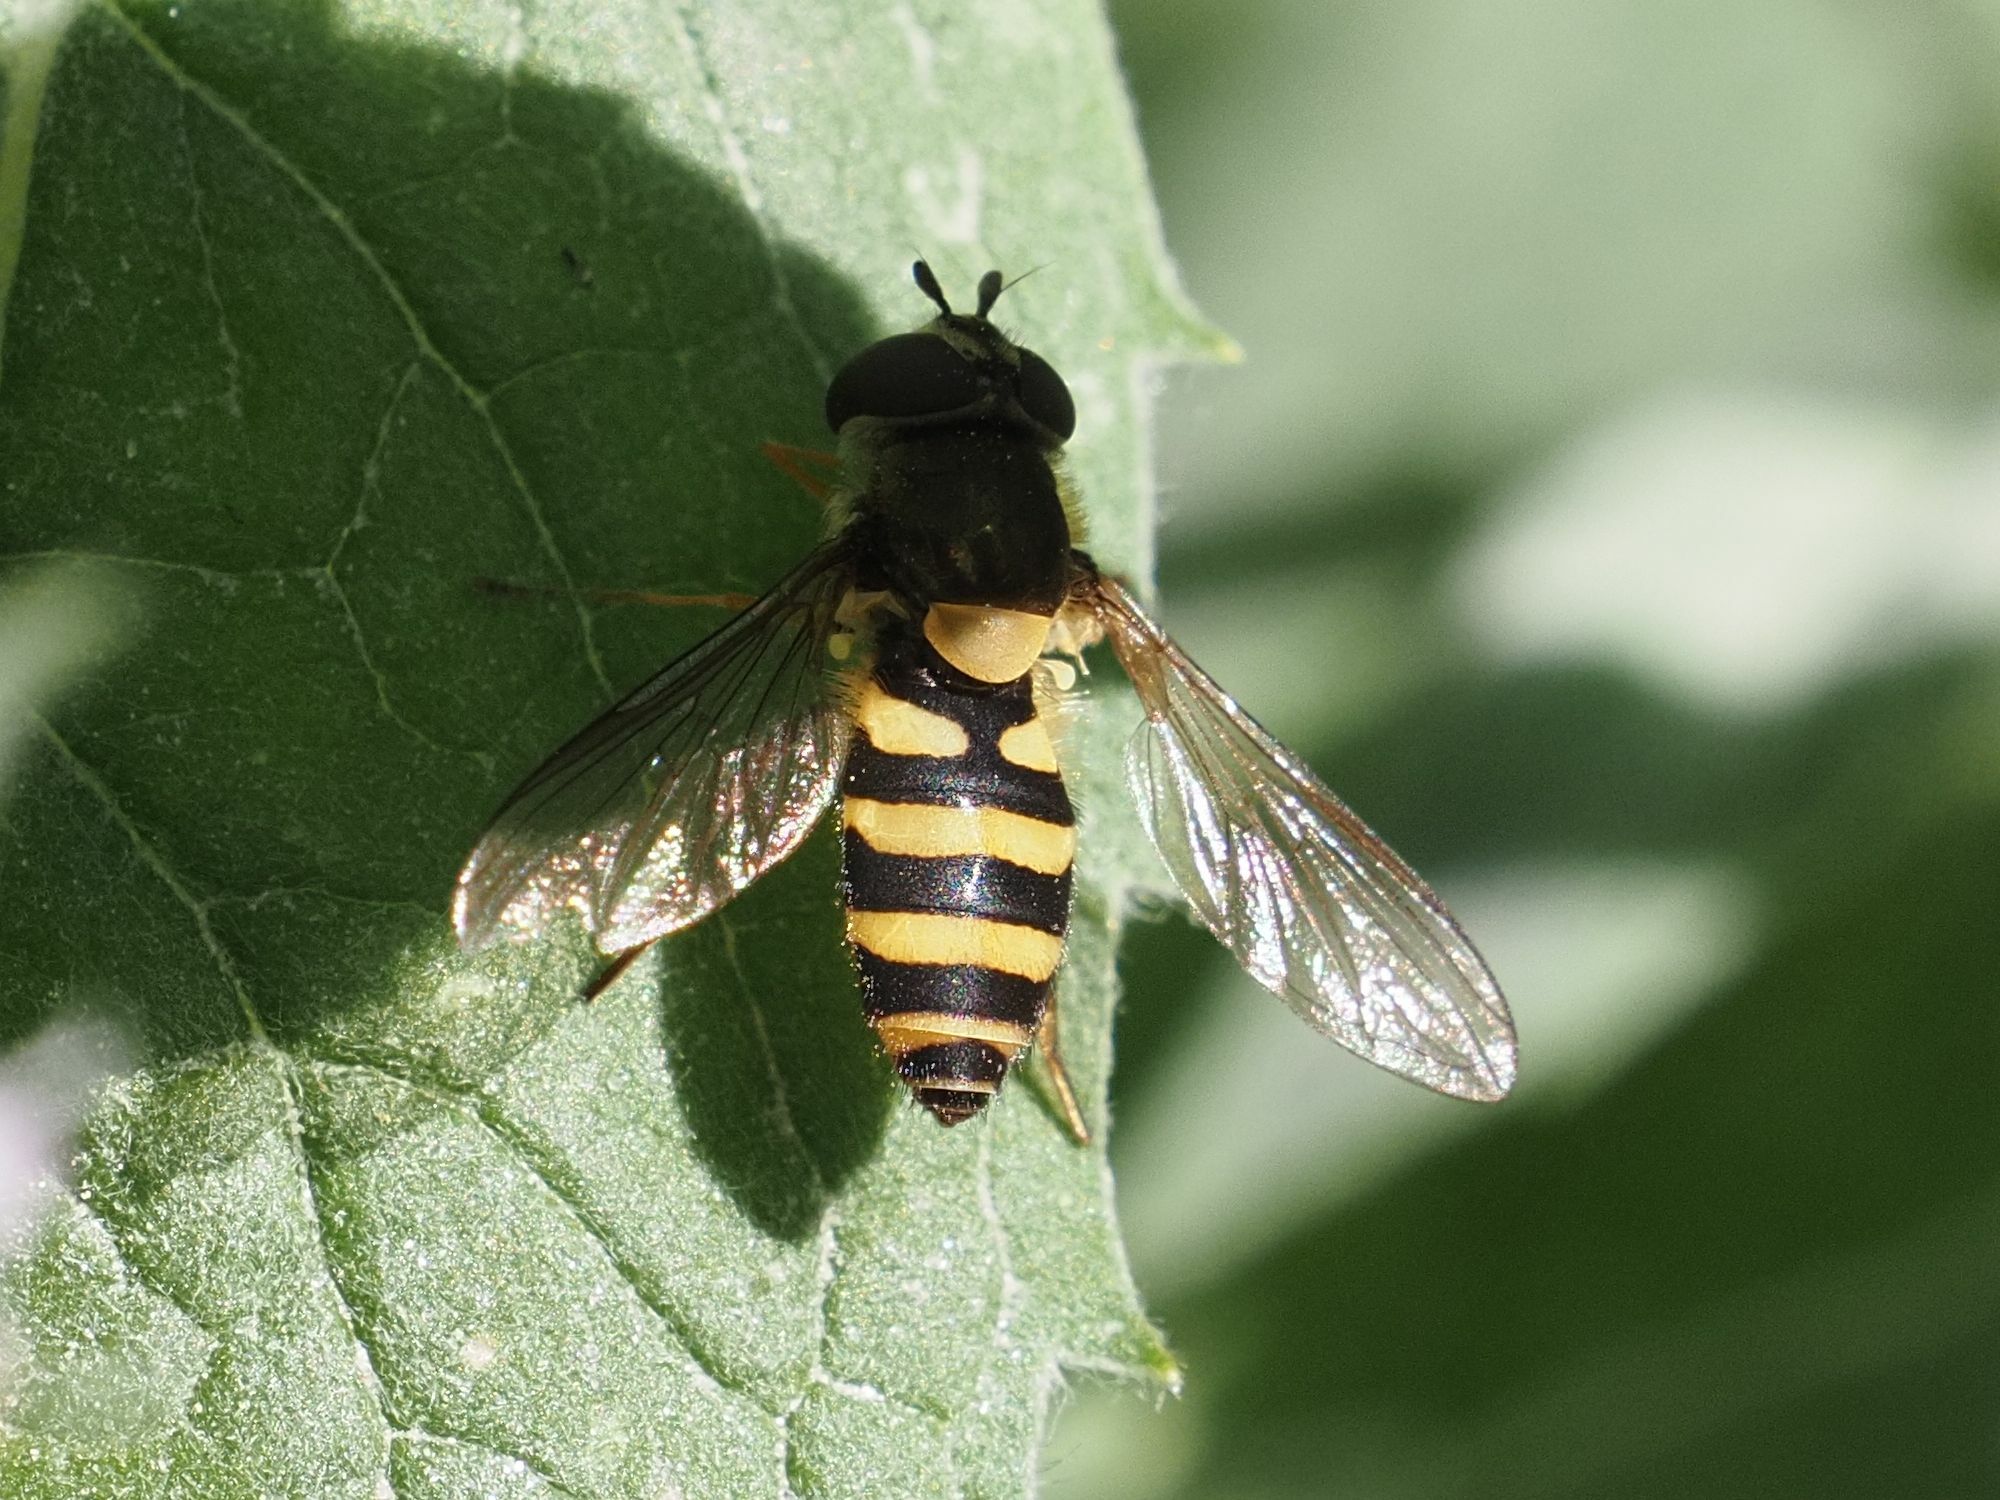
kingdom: Animalia
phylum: Arthropoda
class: Insecta
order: Diptera
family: Syrphidae
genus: Syrphus
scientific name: Syrphus
